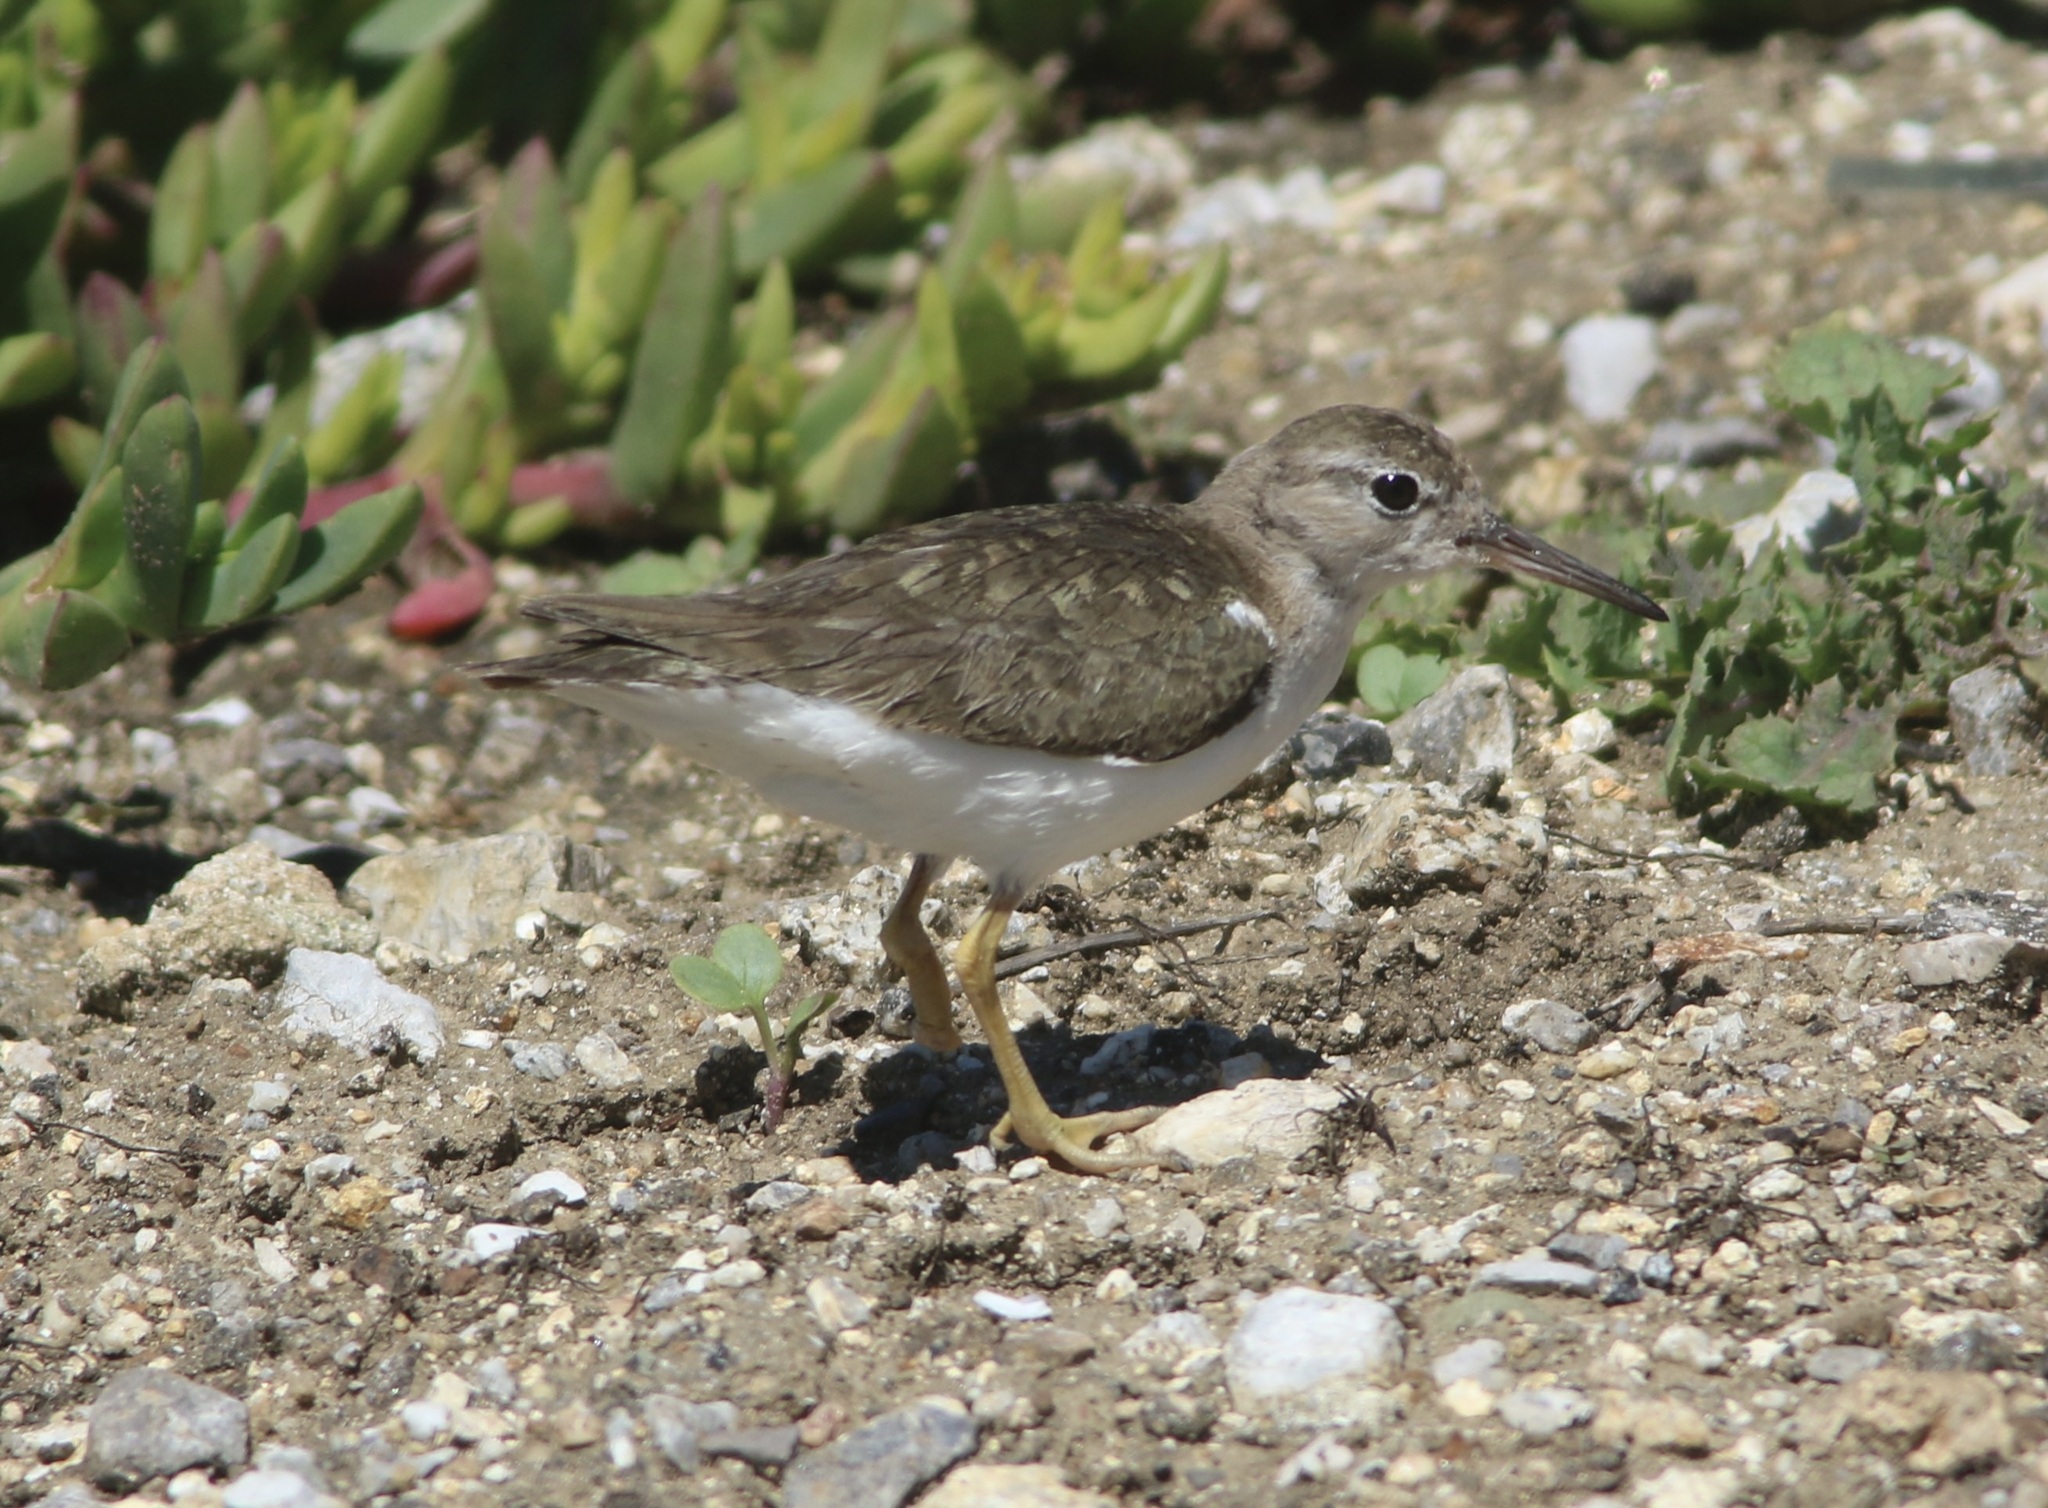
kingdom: Animalia
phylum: Chordata
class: Aves
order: Charadriiformes
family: Scolopacidae
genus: Actitis
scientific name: Actitis macularius
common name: Spotted sandpiper
